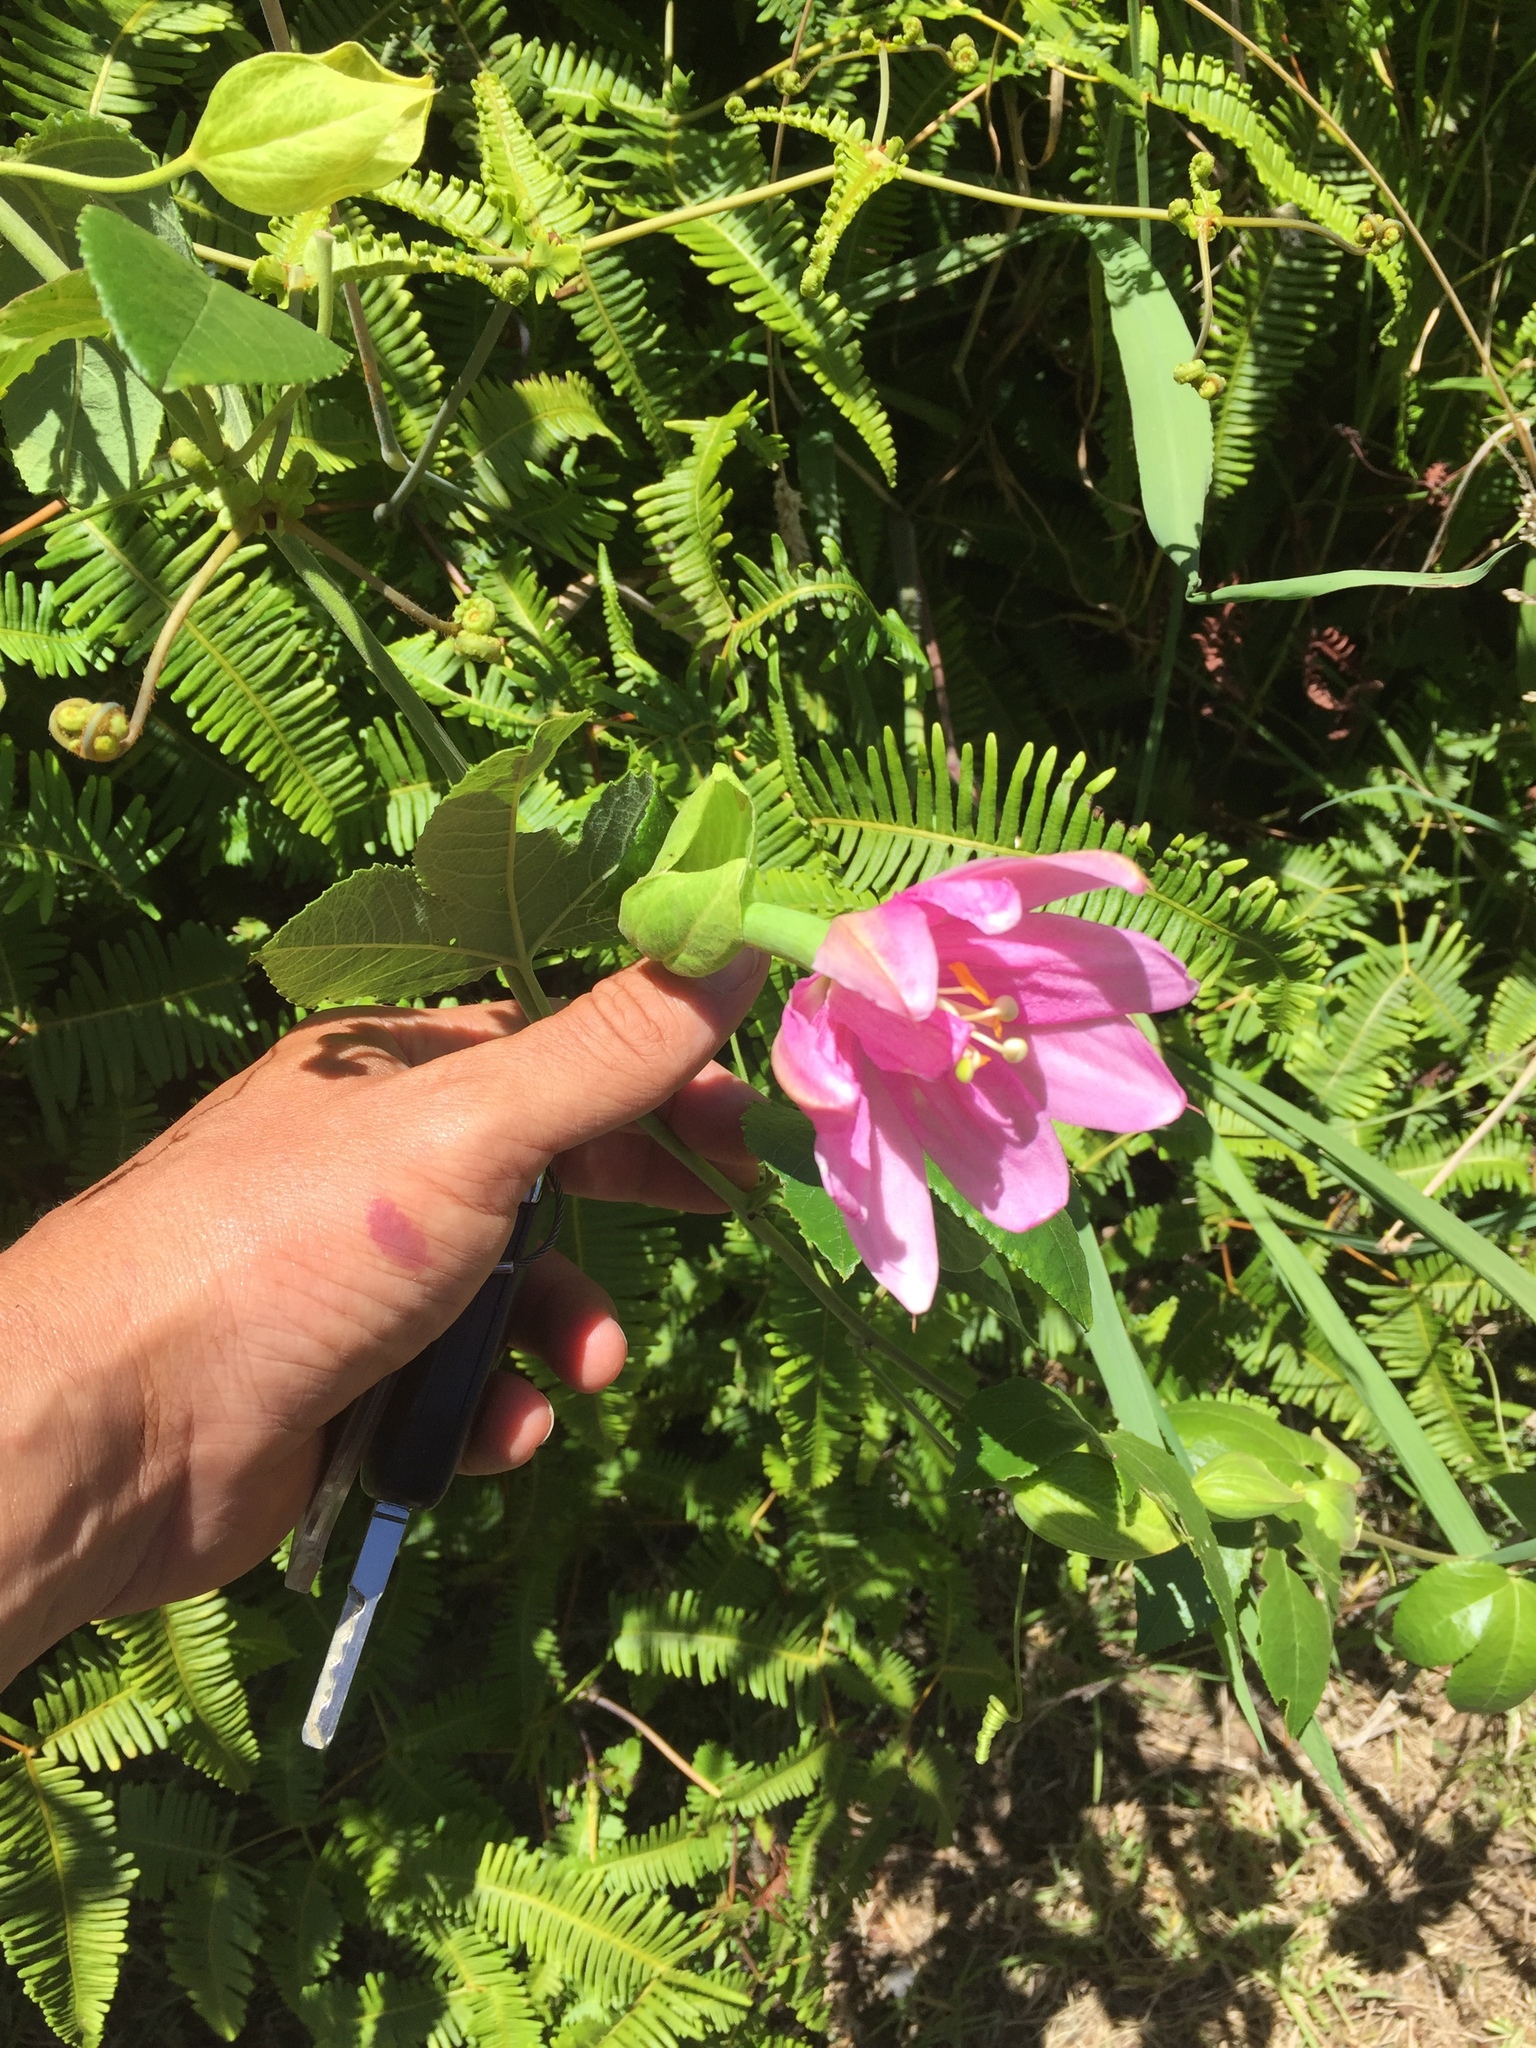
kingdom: Plantae
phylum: Tracheophyta
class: Magnoliopsida
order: Malpighiales
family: Passifloraceae
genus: Passiflora
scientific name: Passiflora tarminiana
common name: Banana poka
